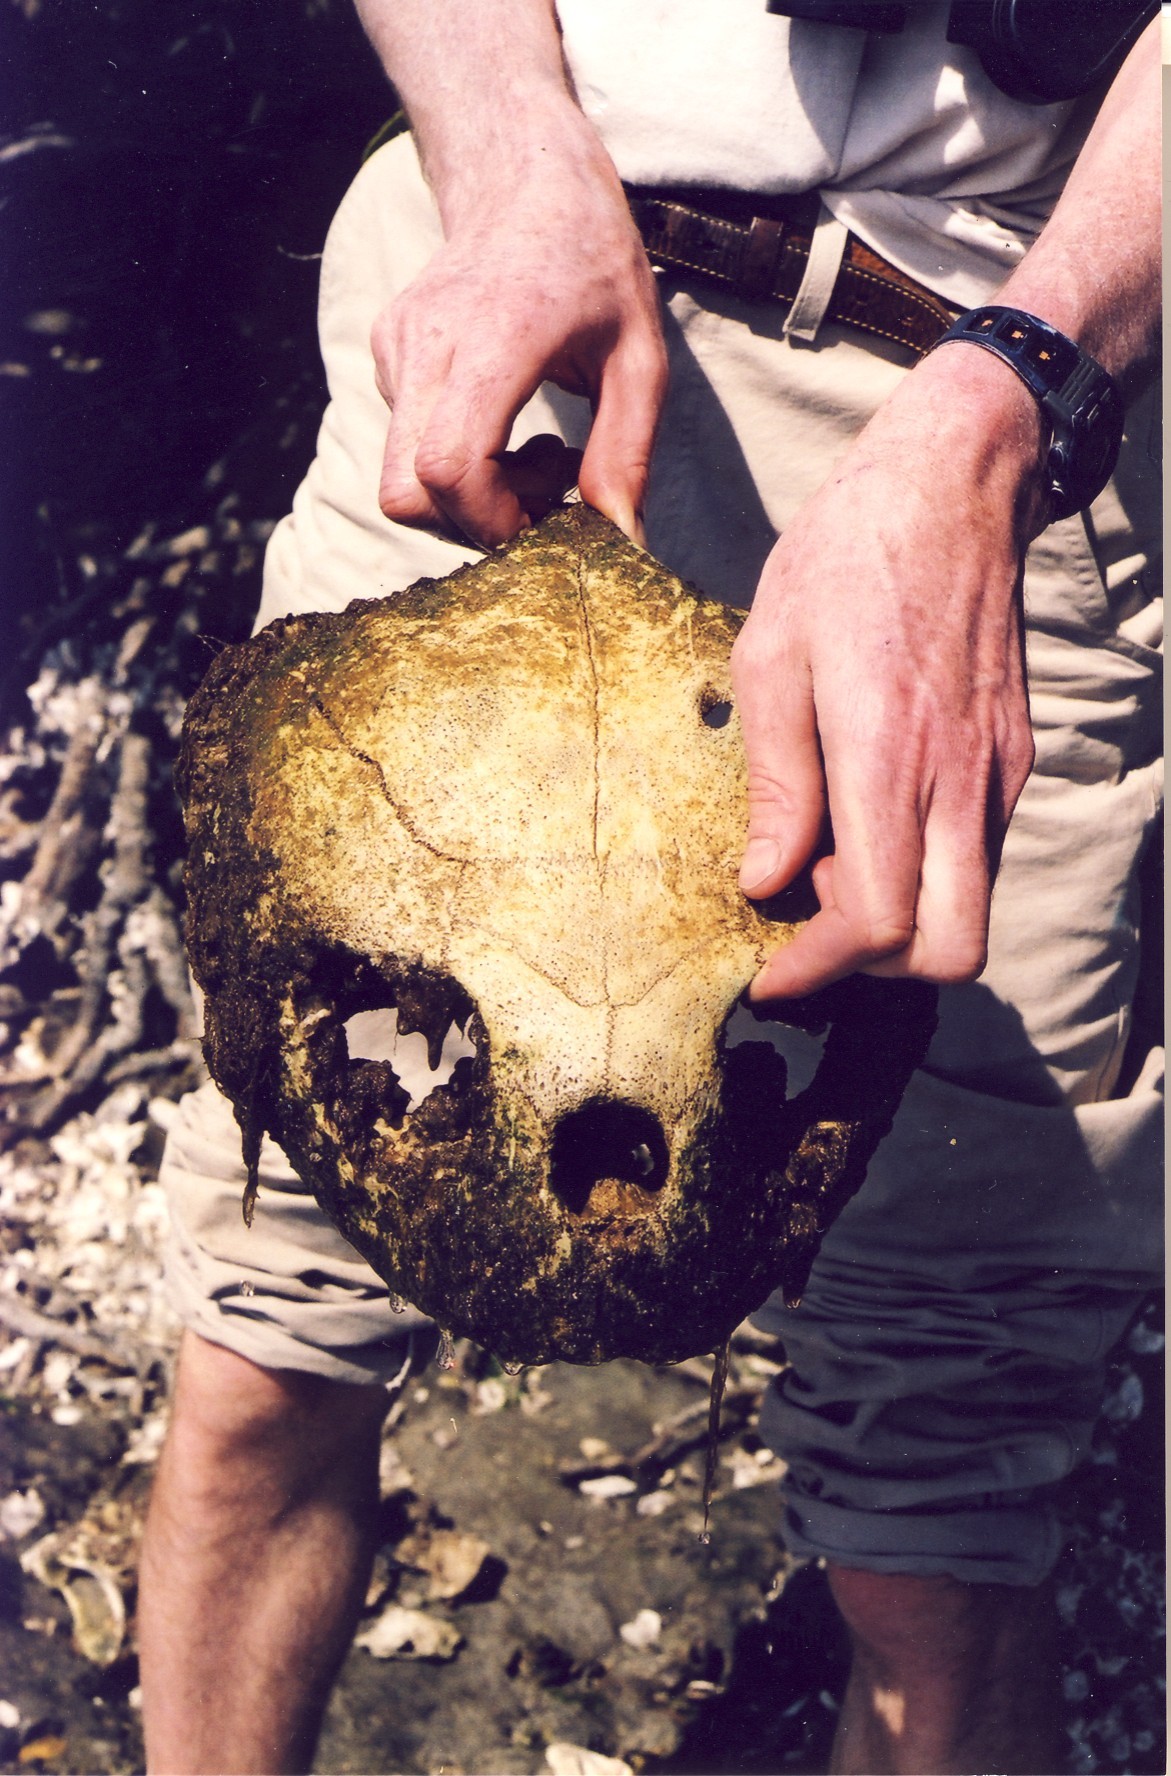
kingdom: Animalia
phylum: Chordata
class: Testudines
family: Cheloniidae
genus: Caretta
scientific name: Caretta caretta
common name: Loggerhead sea turtle
